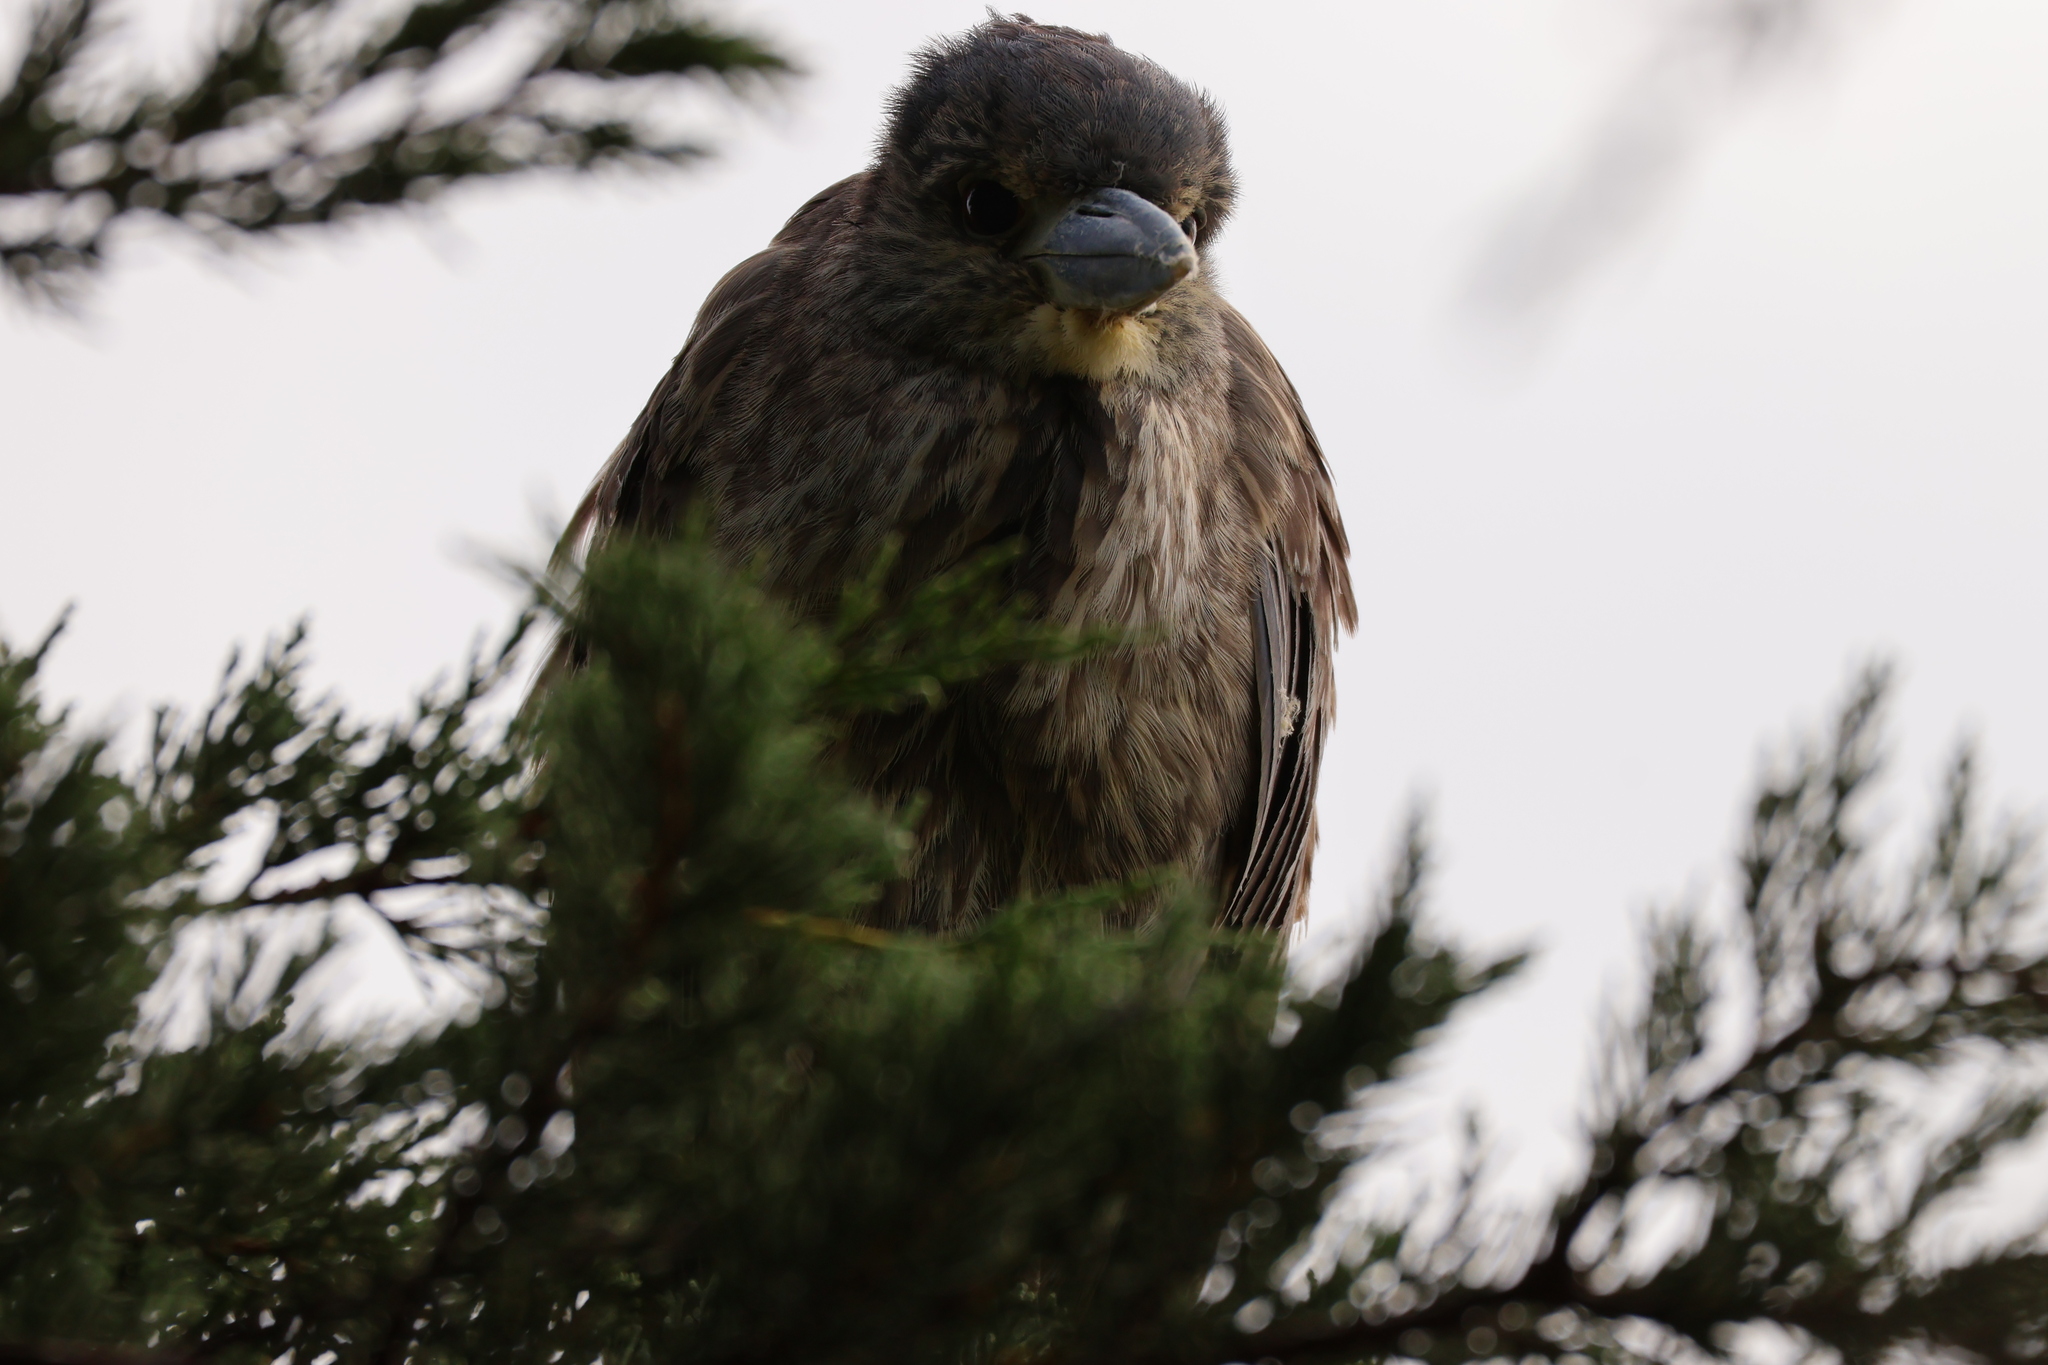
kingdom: Animalia
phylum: Chordata
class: Aves
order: Pelecaniformes
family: Ardeidae
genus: Nyctanassa
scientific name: Nyctanassa violacea
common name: Yellow-crowned night heron
